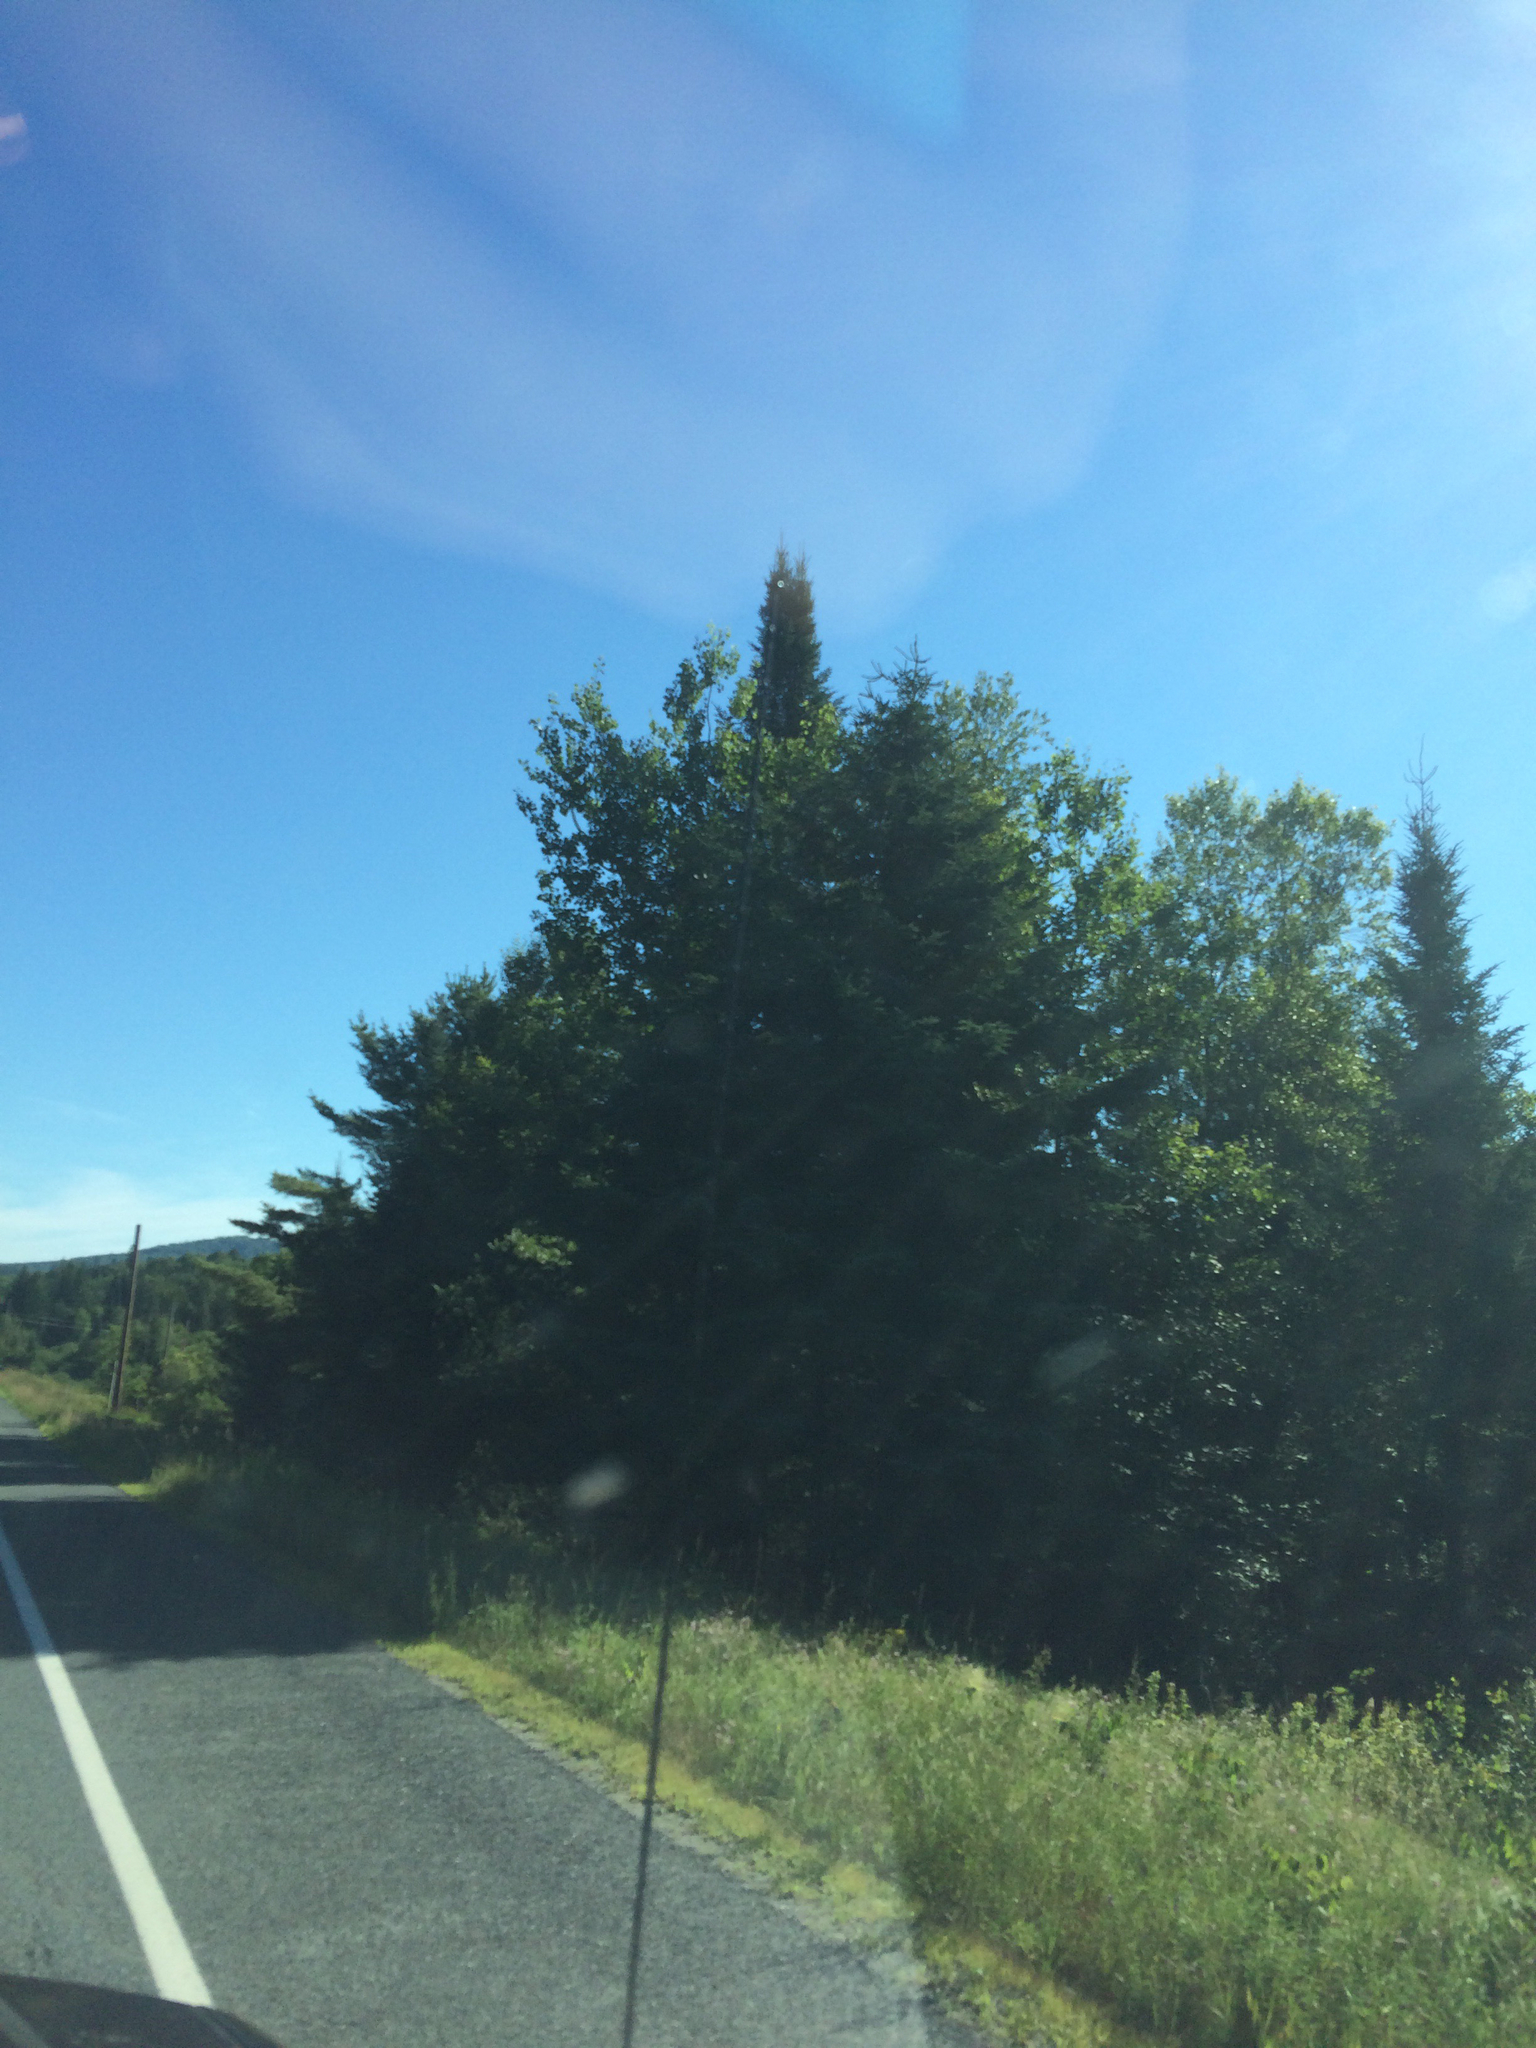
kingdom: Plantae
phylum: Tracheophyta
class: Pinopsida
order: Pinales
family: Pinaceae
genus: Abies
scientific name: Abies balsamea
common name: Balsam fir
